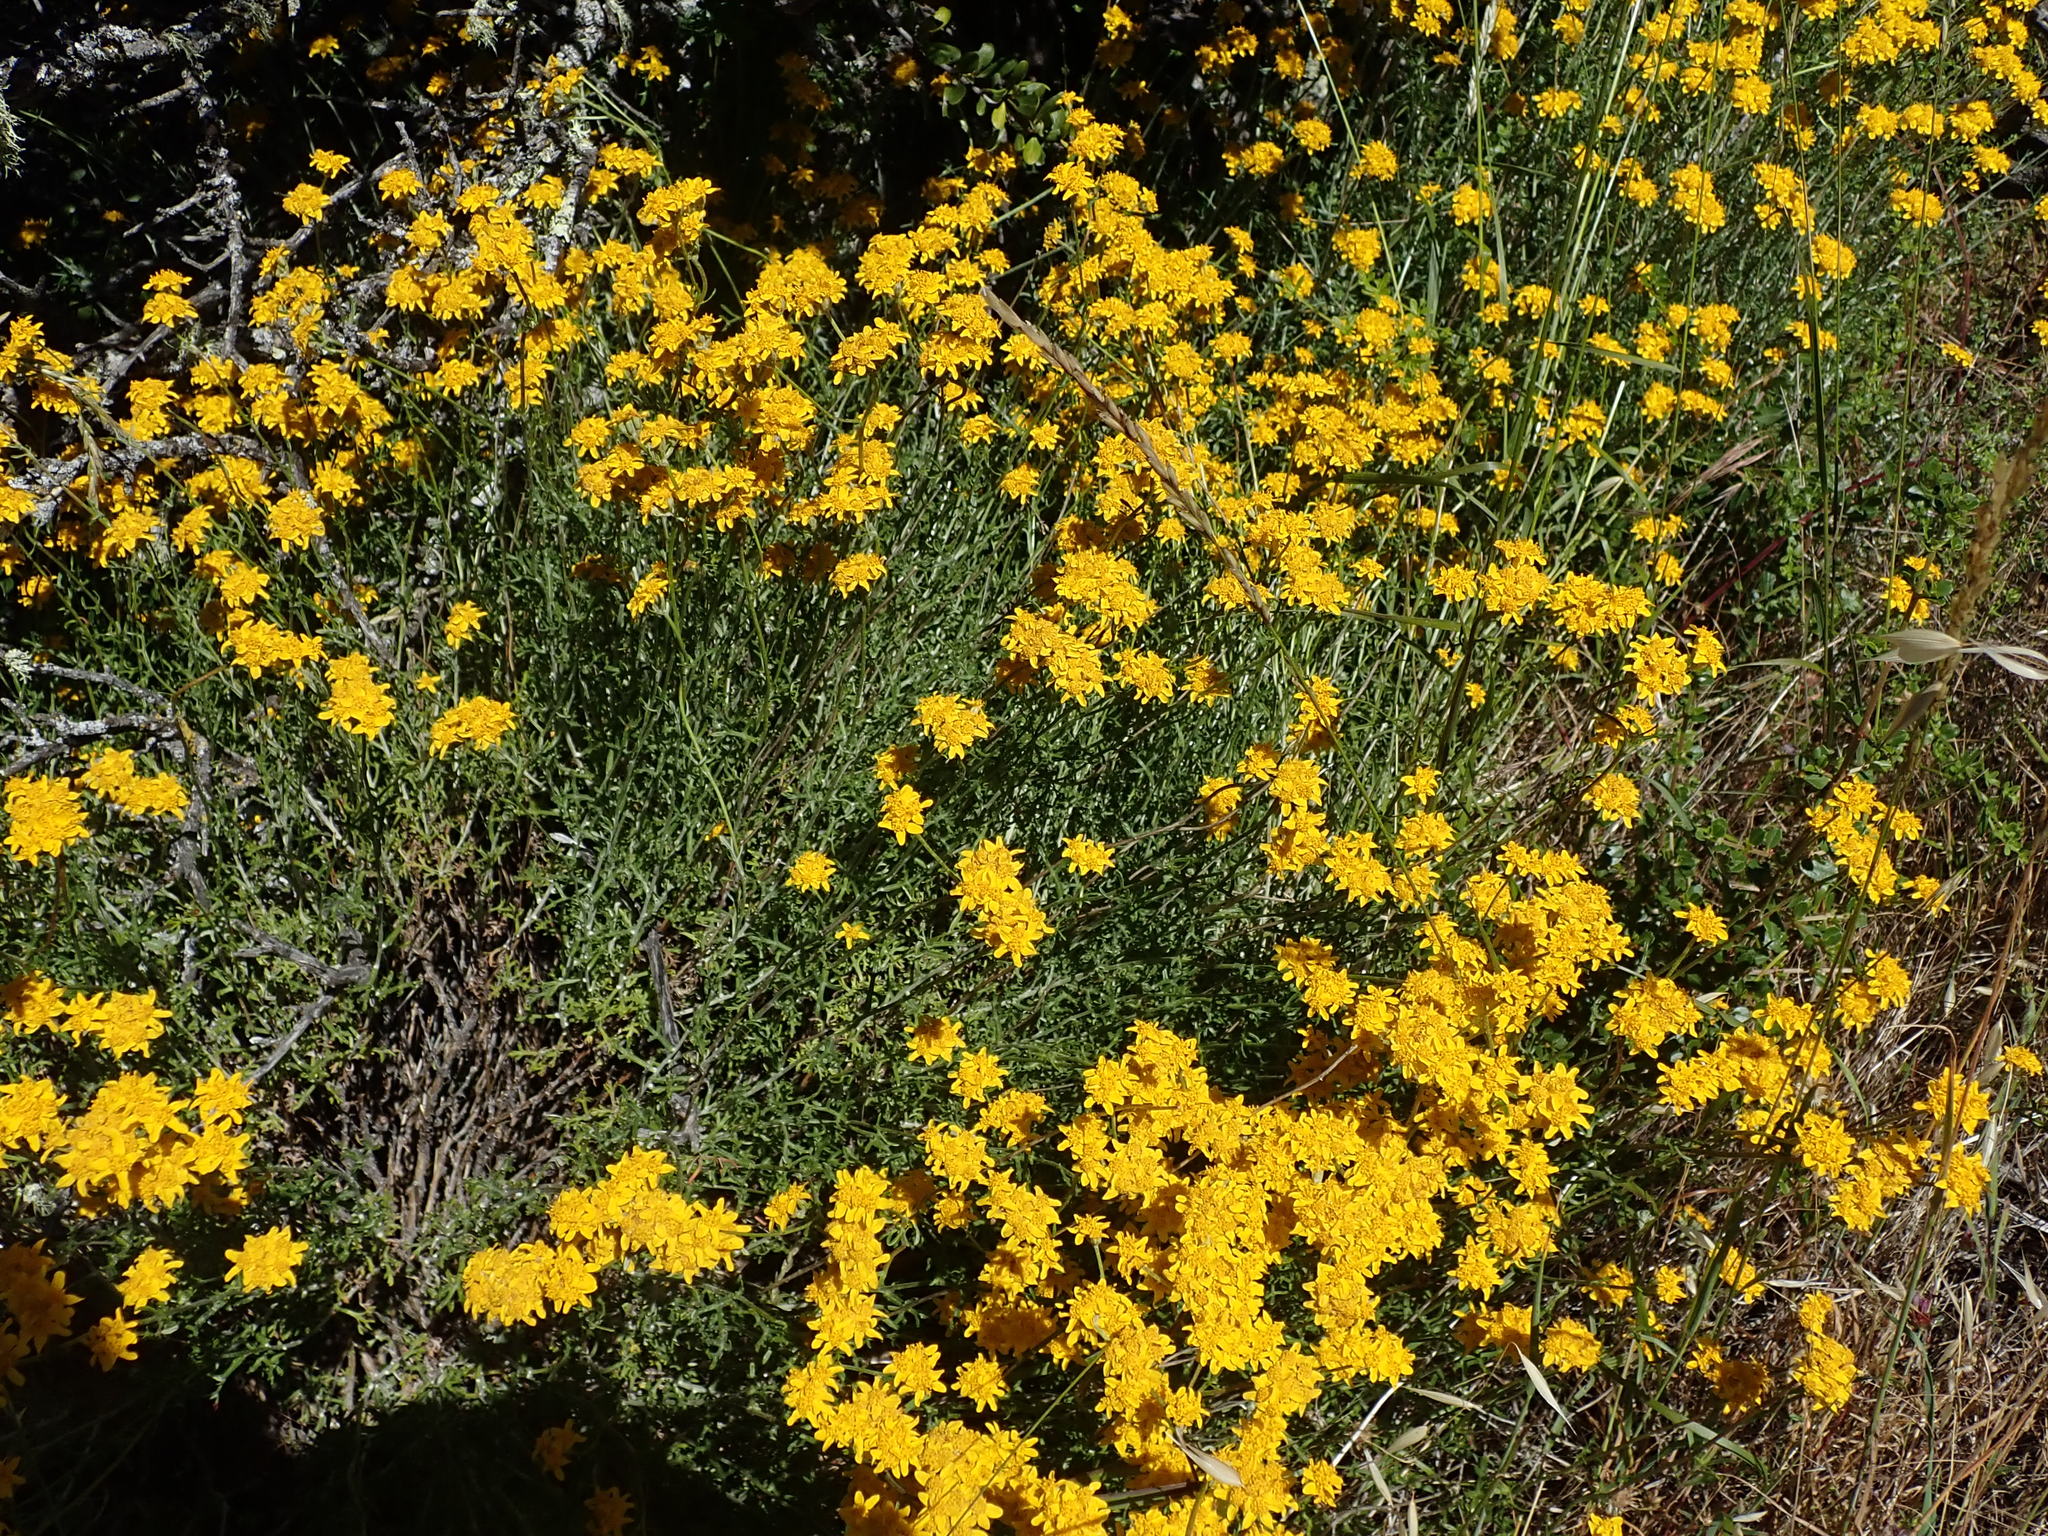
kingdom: Plantae
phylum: Tracheophyta
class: Magnoliopsida
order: Asterales
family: Asteraceae
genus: Eriophyllum
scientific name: Eriophyllum confertiflorum
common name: Golden-yarrow
